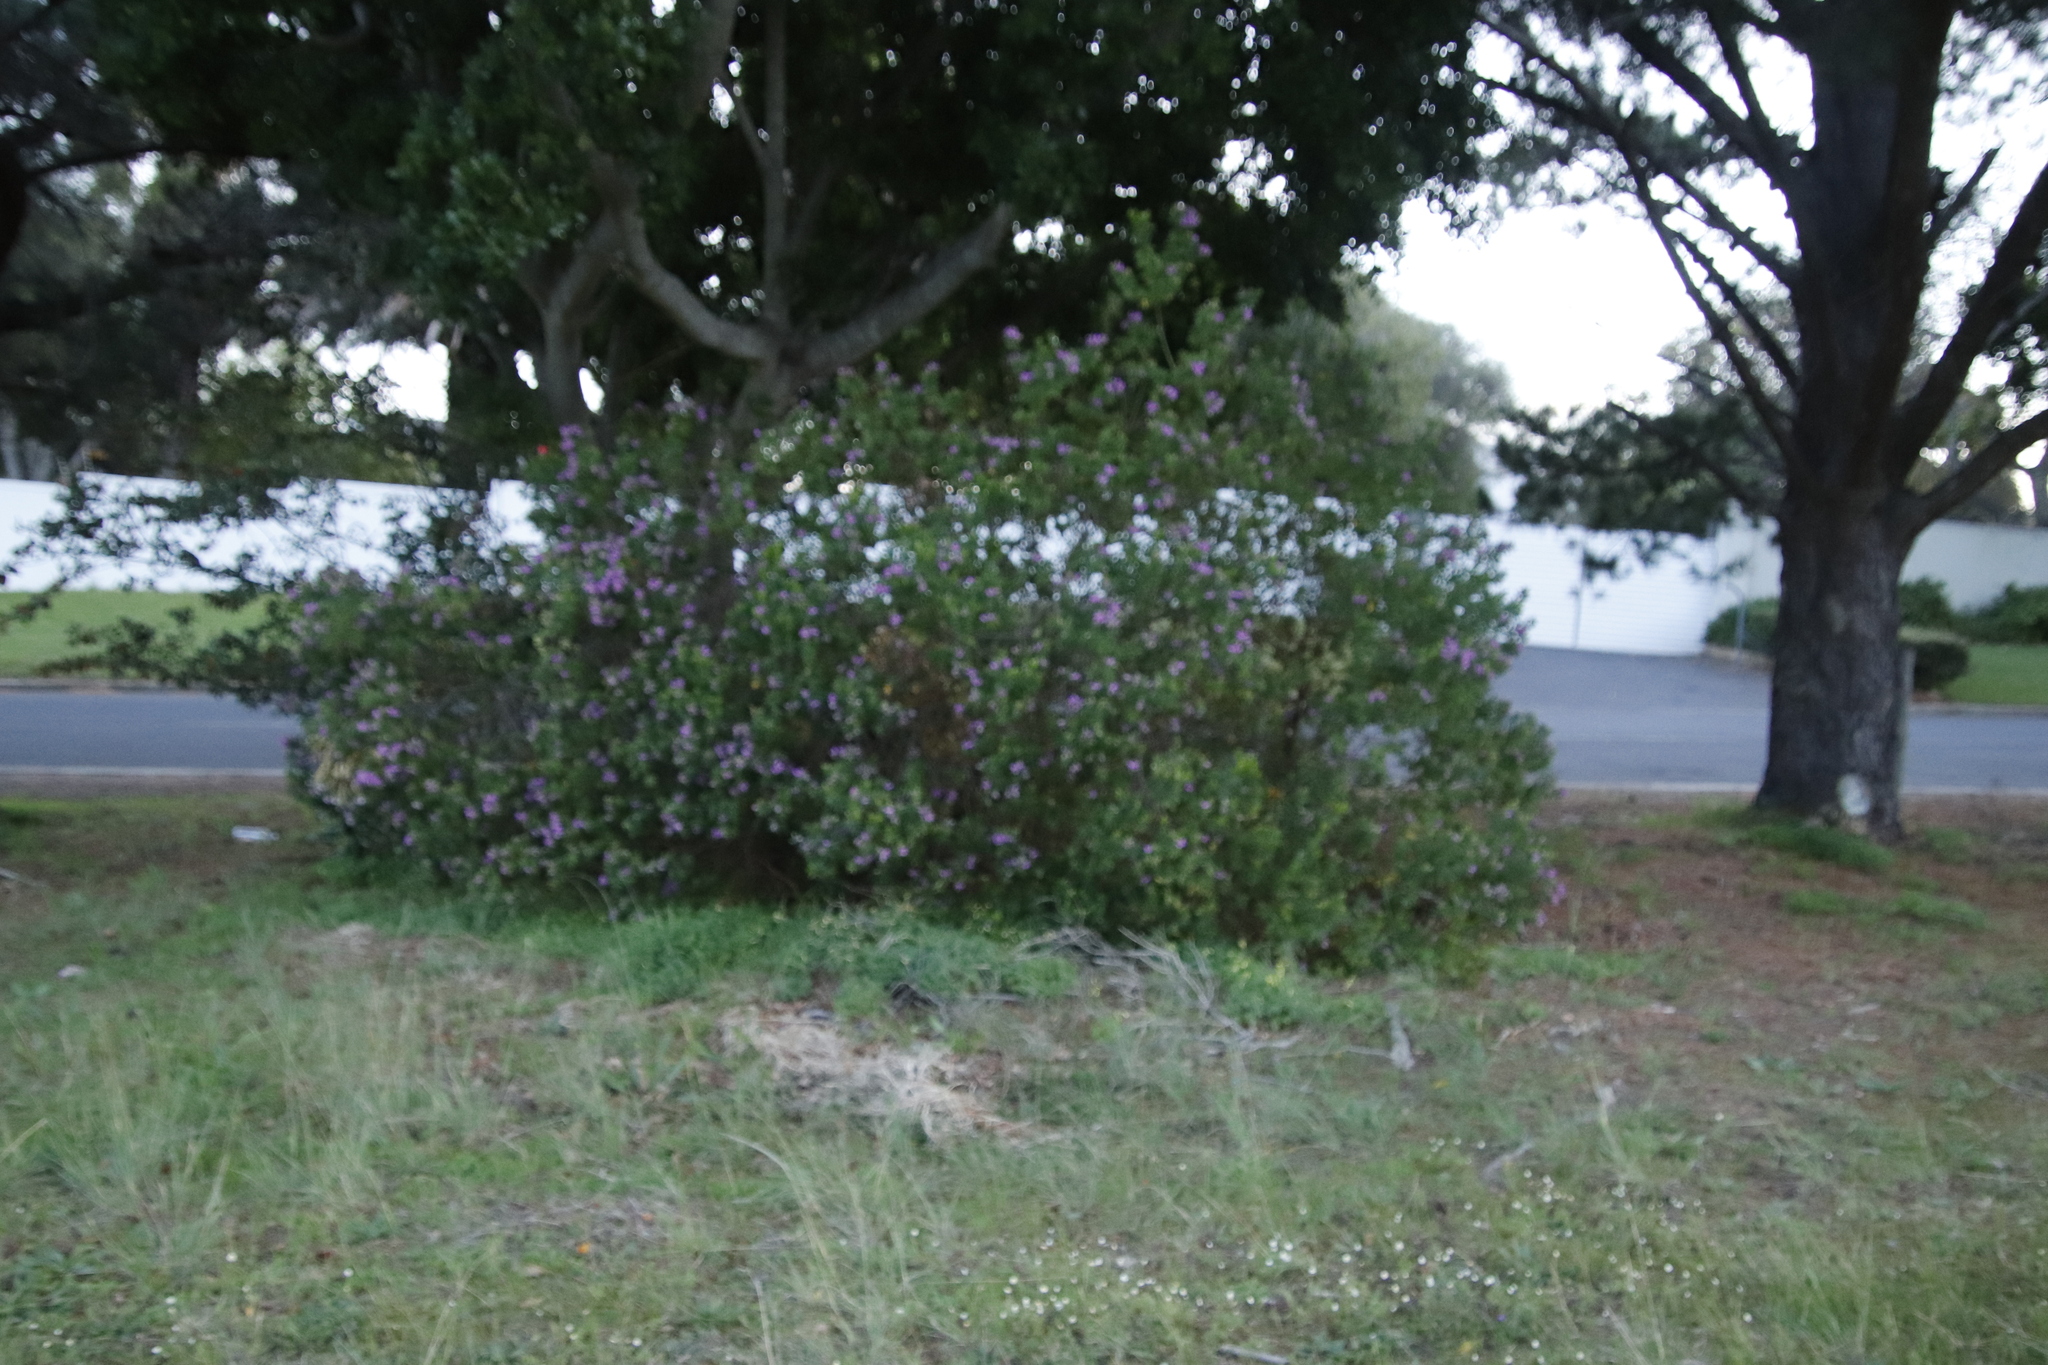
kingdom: Plantae
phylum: Tracheophyta
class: Magnoliopsida
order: Fabales
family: Polygalaceae
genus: Polygala
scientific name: Polygala myrtifolia
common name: Myrtle-leaf milkwort
